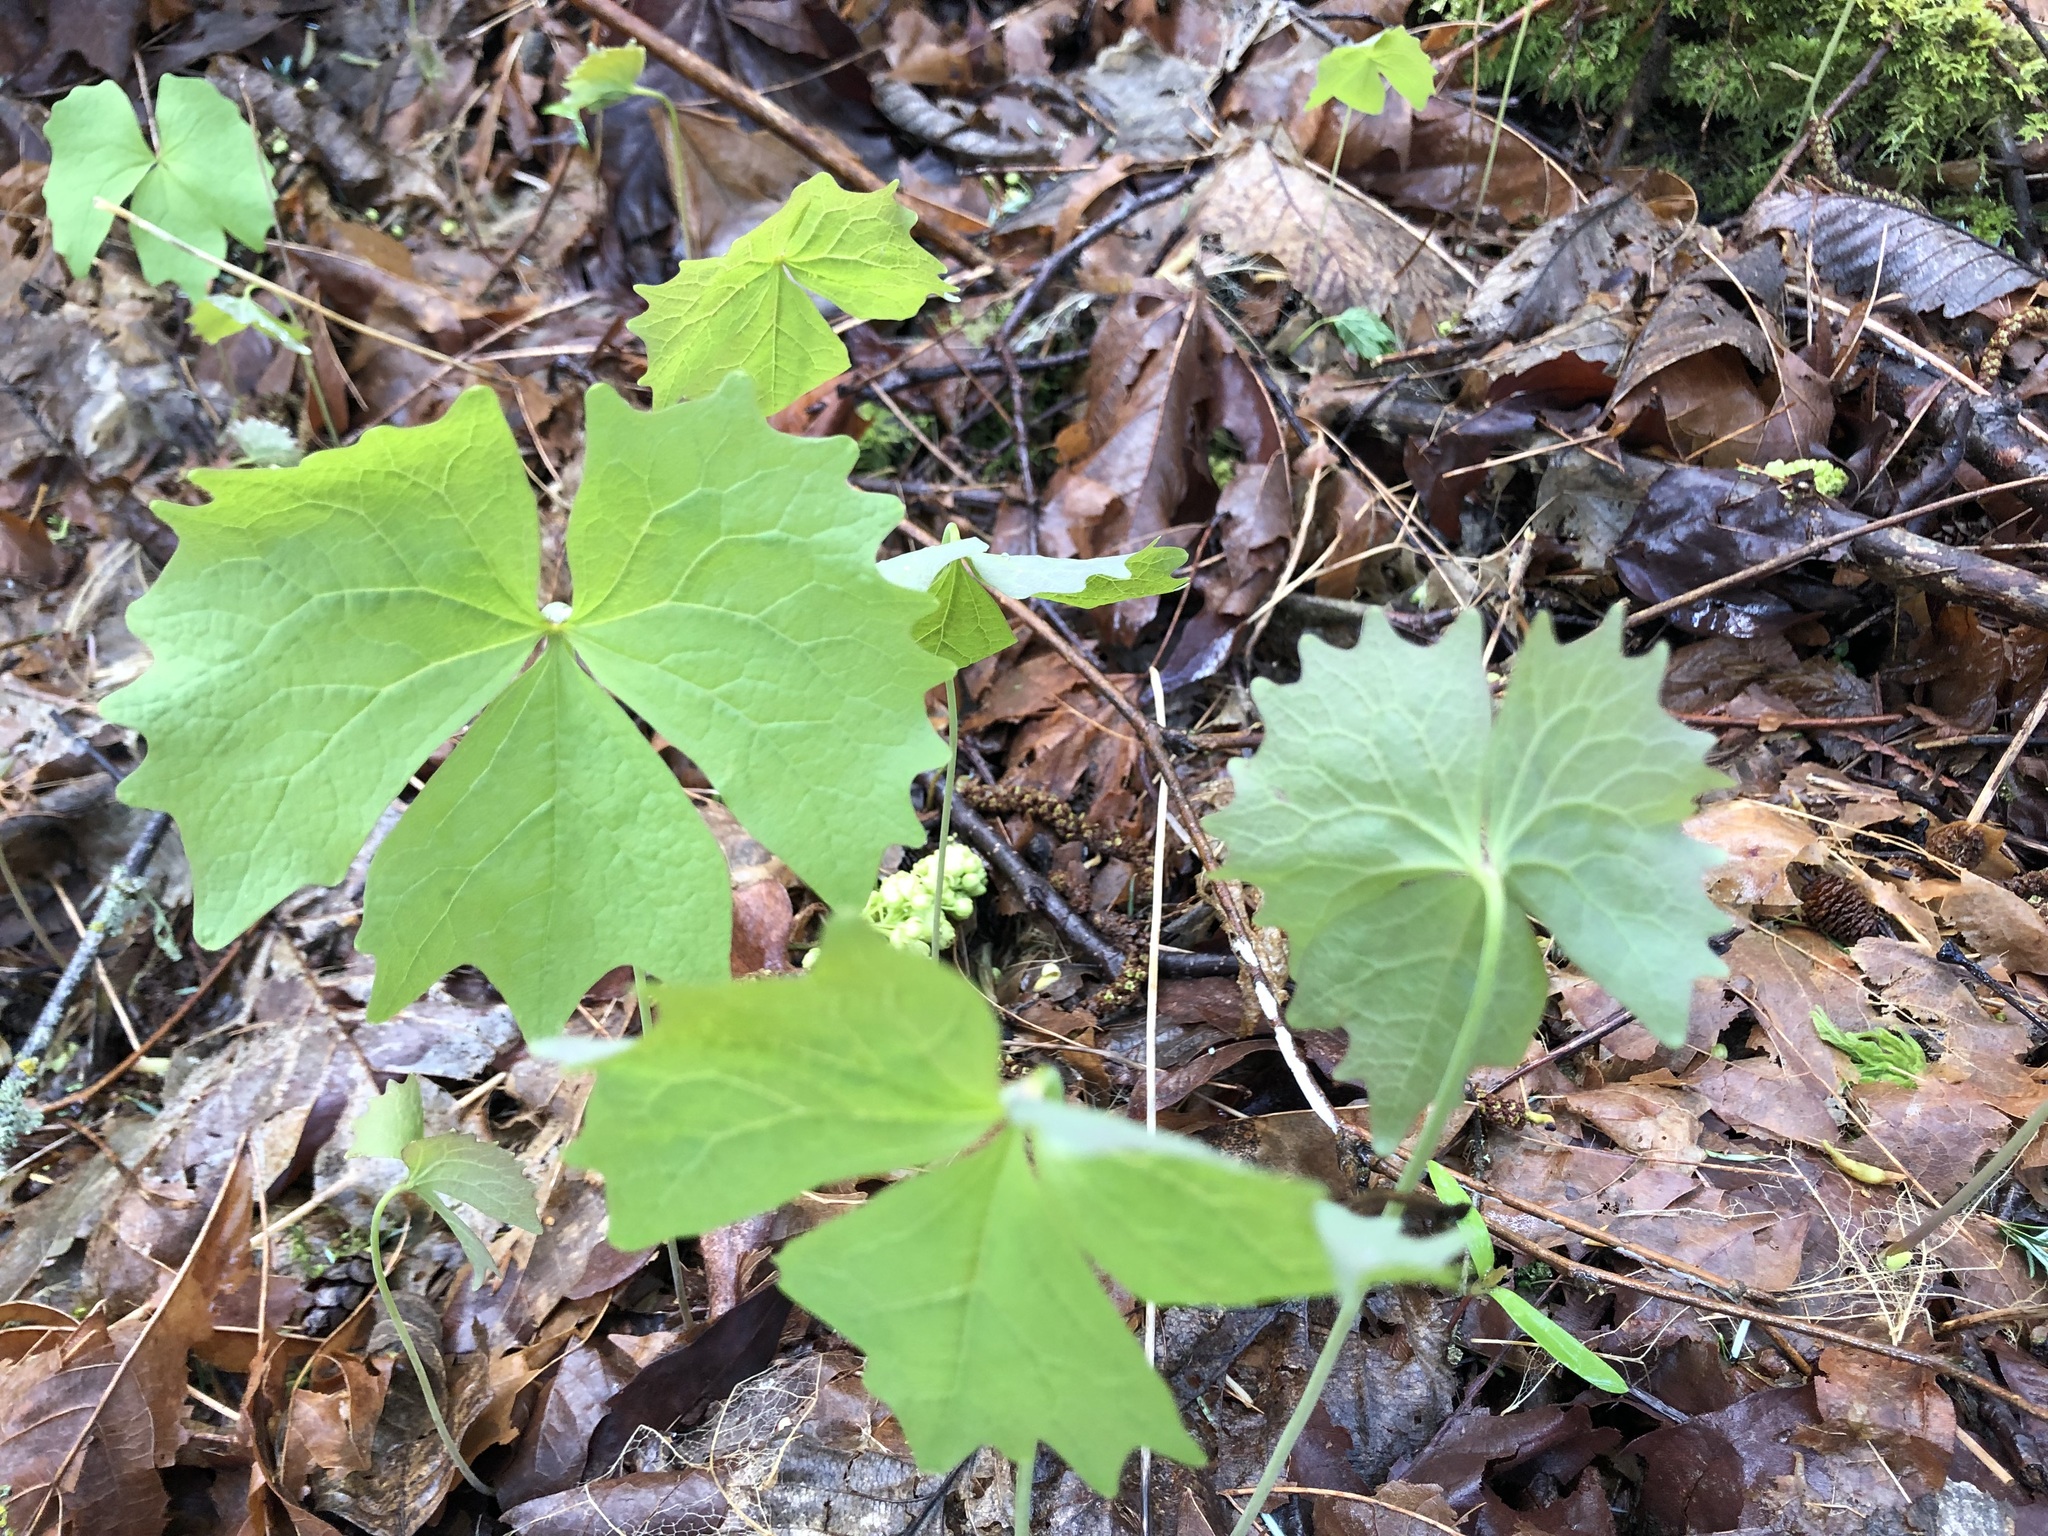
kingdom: Plantae
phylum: Tracheophyta
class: Magnoliopsida
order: Ranunculales
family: Berberidaceae
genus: Achlys
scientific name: Achlys triphylla
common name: Vanilla-leaf
